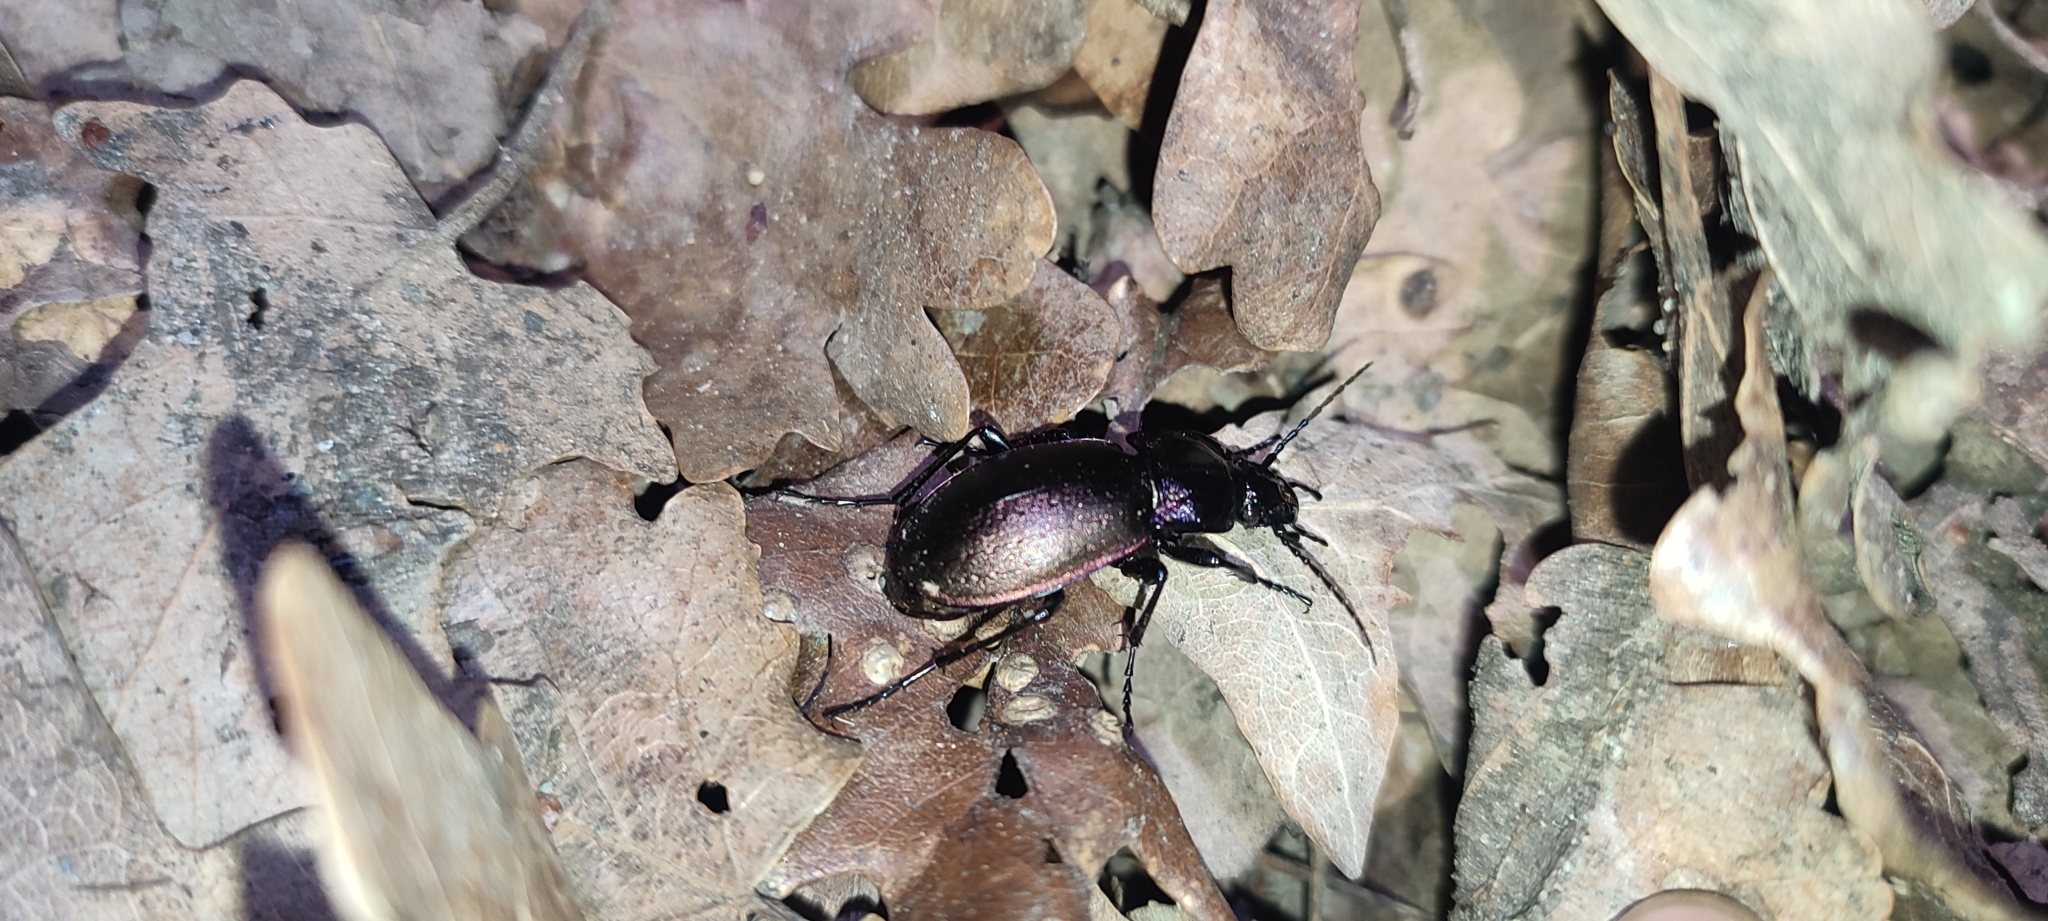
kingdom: Animalia
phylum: Arthropoda
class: Insecta
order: Coleoptera
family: Carabidae
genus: Carabus
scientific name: Carabus nemoralis
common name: European ground beetle
